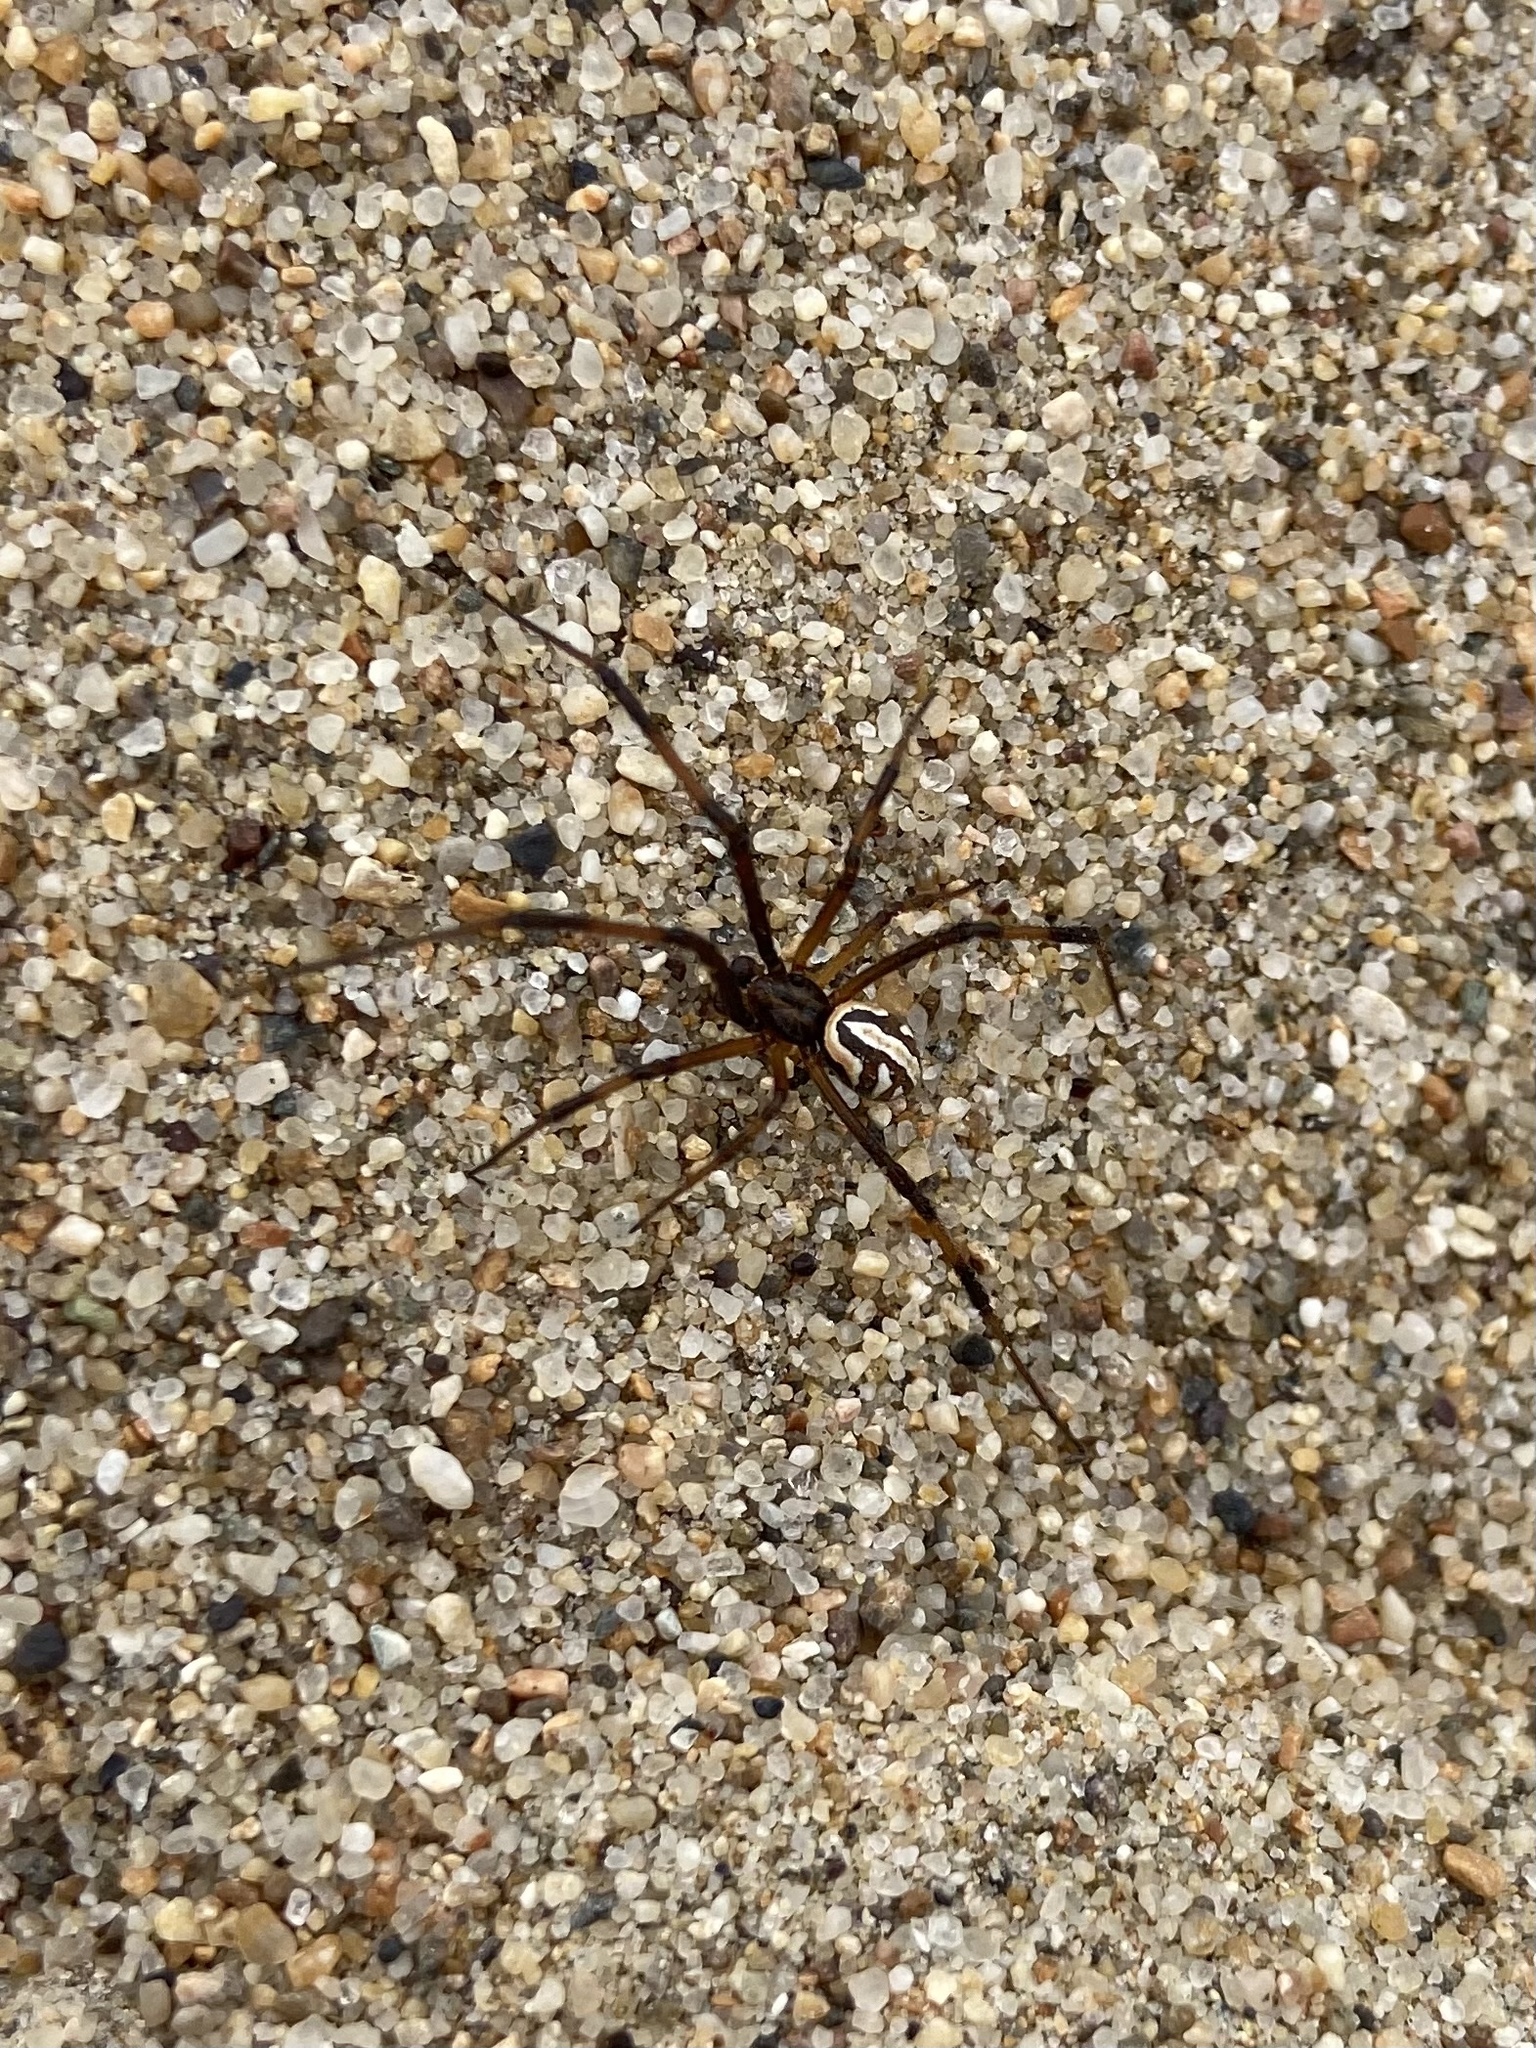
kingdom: Animalia
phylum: Arthropoda
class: Arachnida
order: Araneae
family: Theridiidae
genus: Latrodectus
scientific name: Latrodectus hesperus
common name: Western black widow
